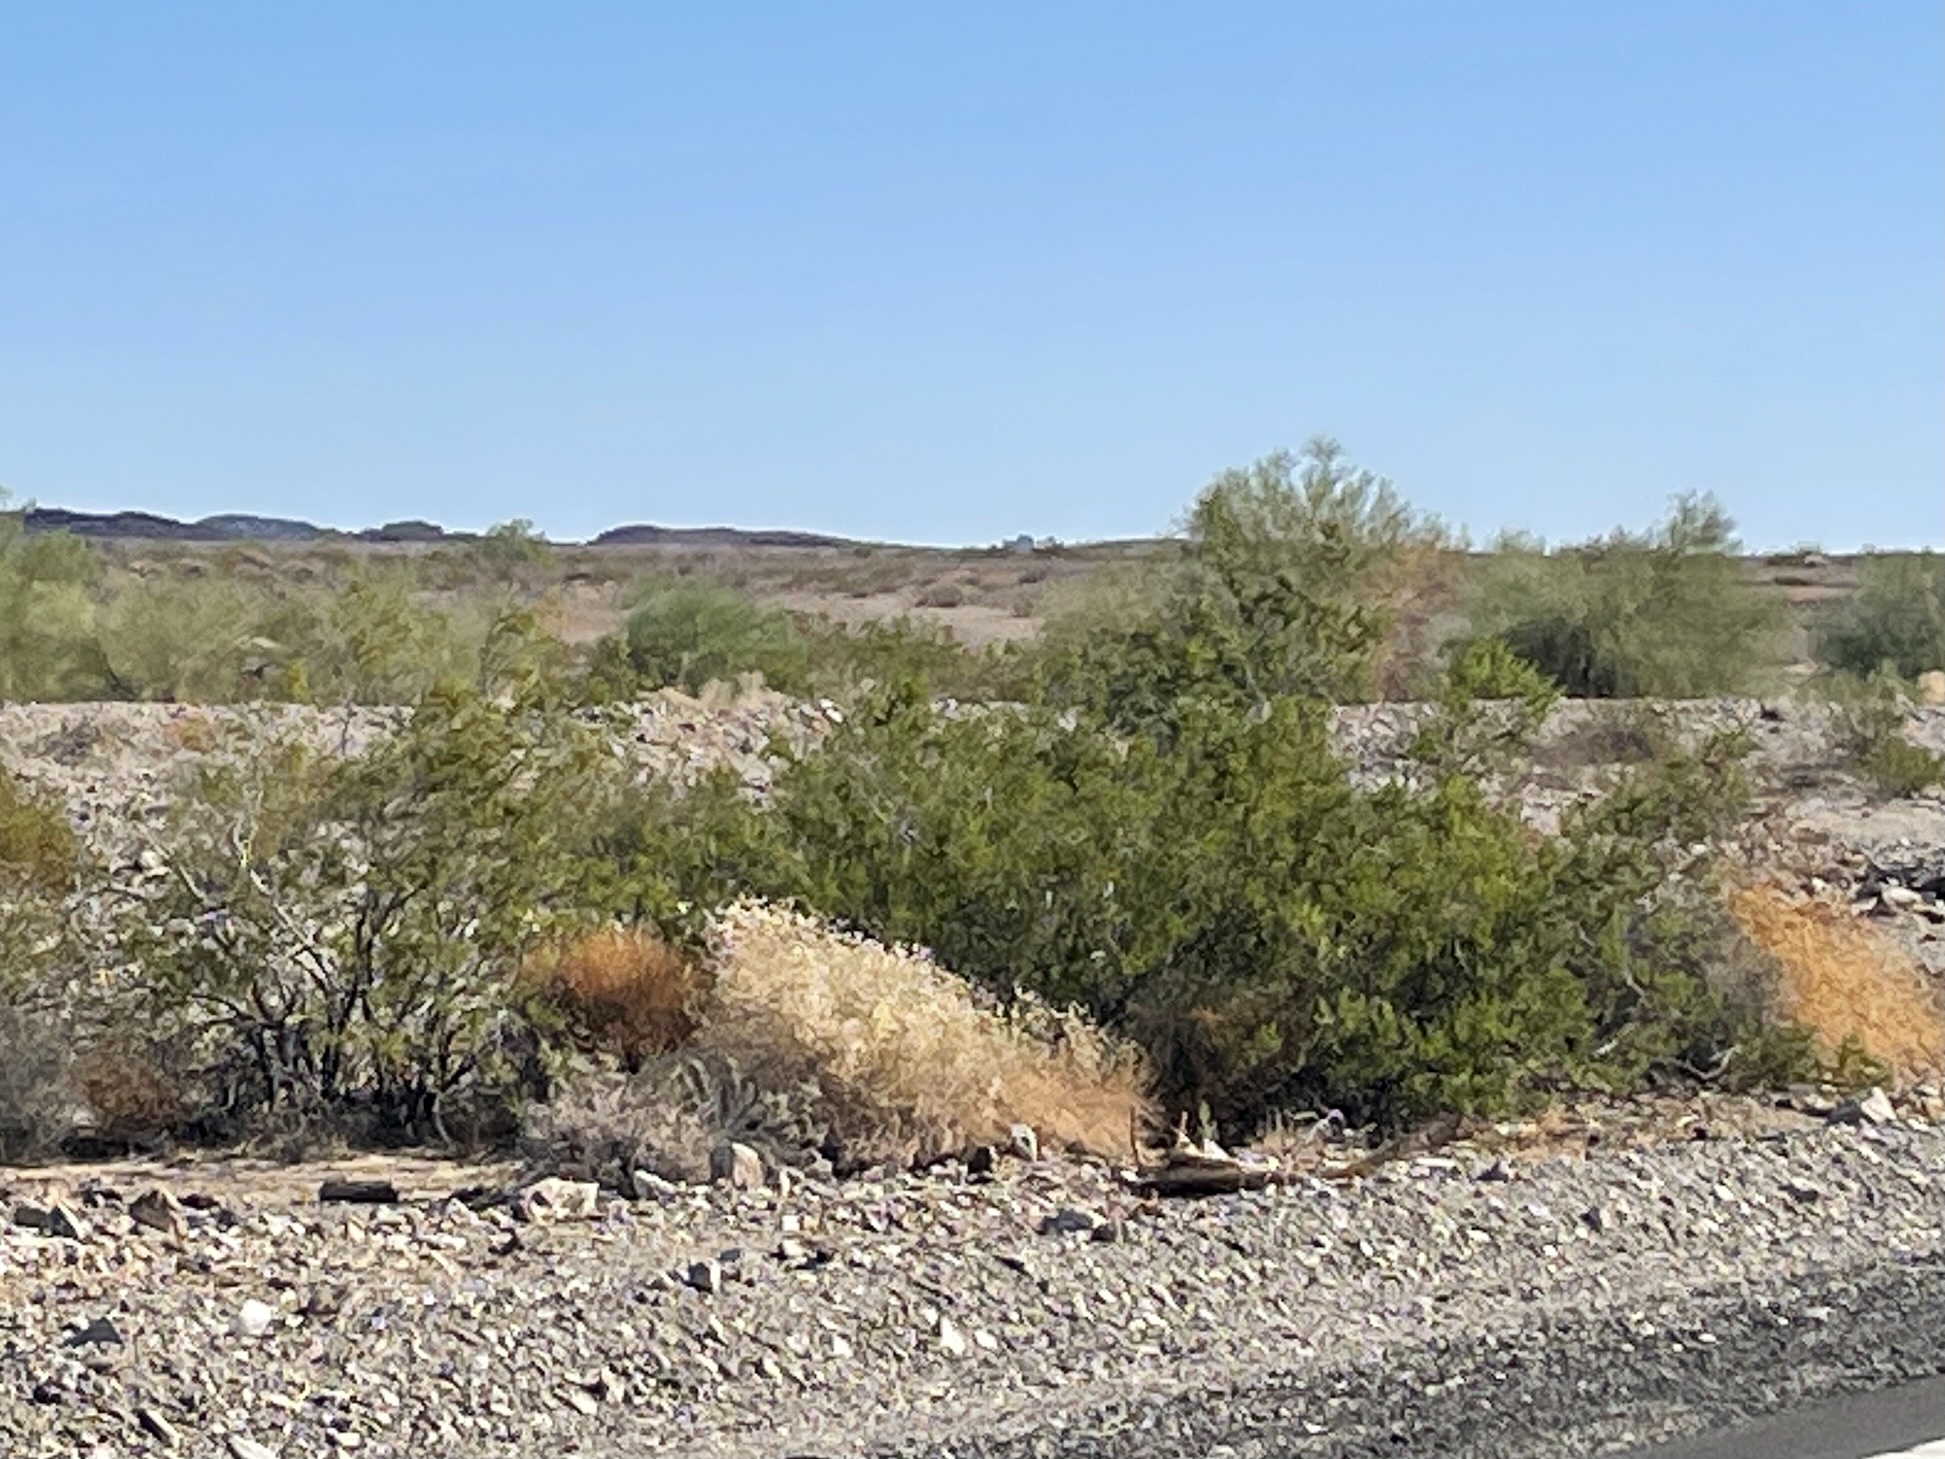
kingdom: Plantae
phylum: Tracheophyta
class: Magnoliopsida
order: Zygophyllales
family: Zygophyllaceae
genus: Larrea
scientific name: Larrea tridentata
